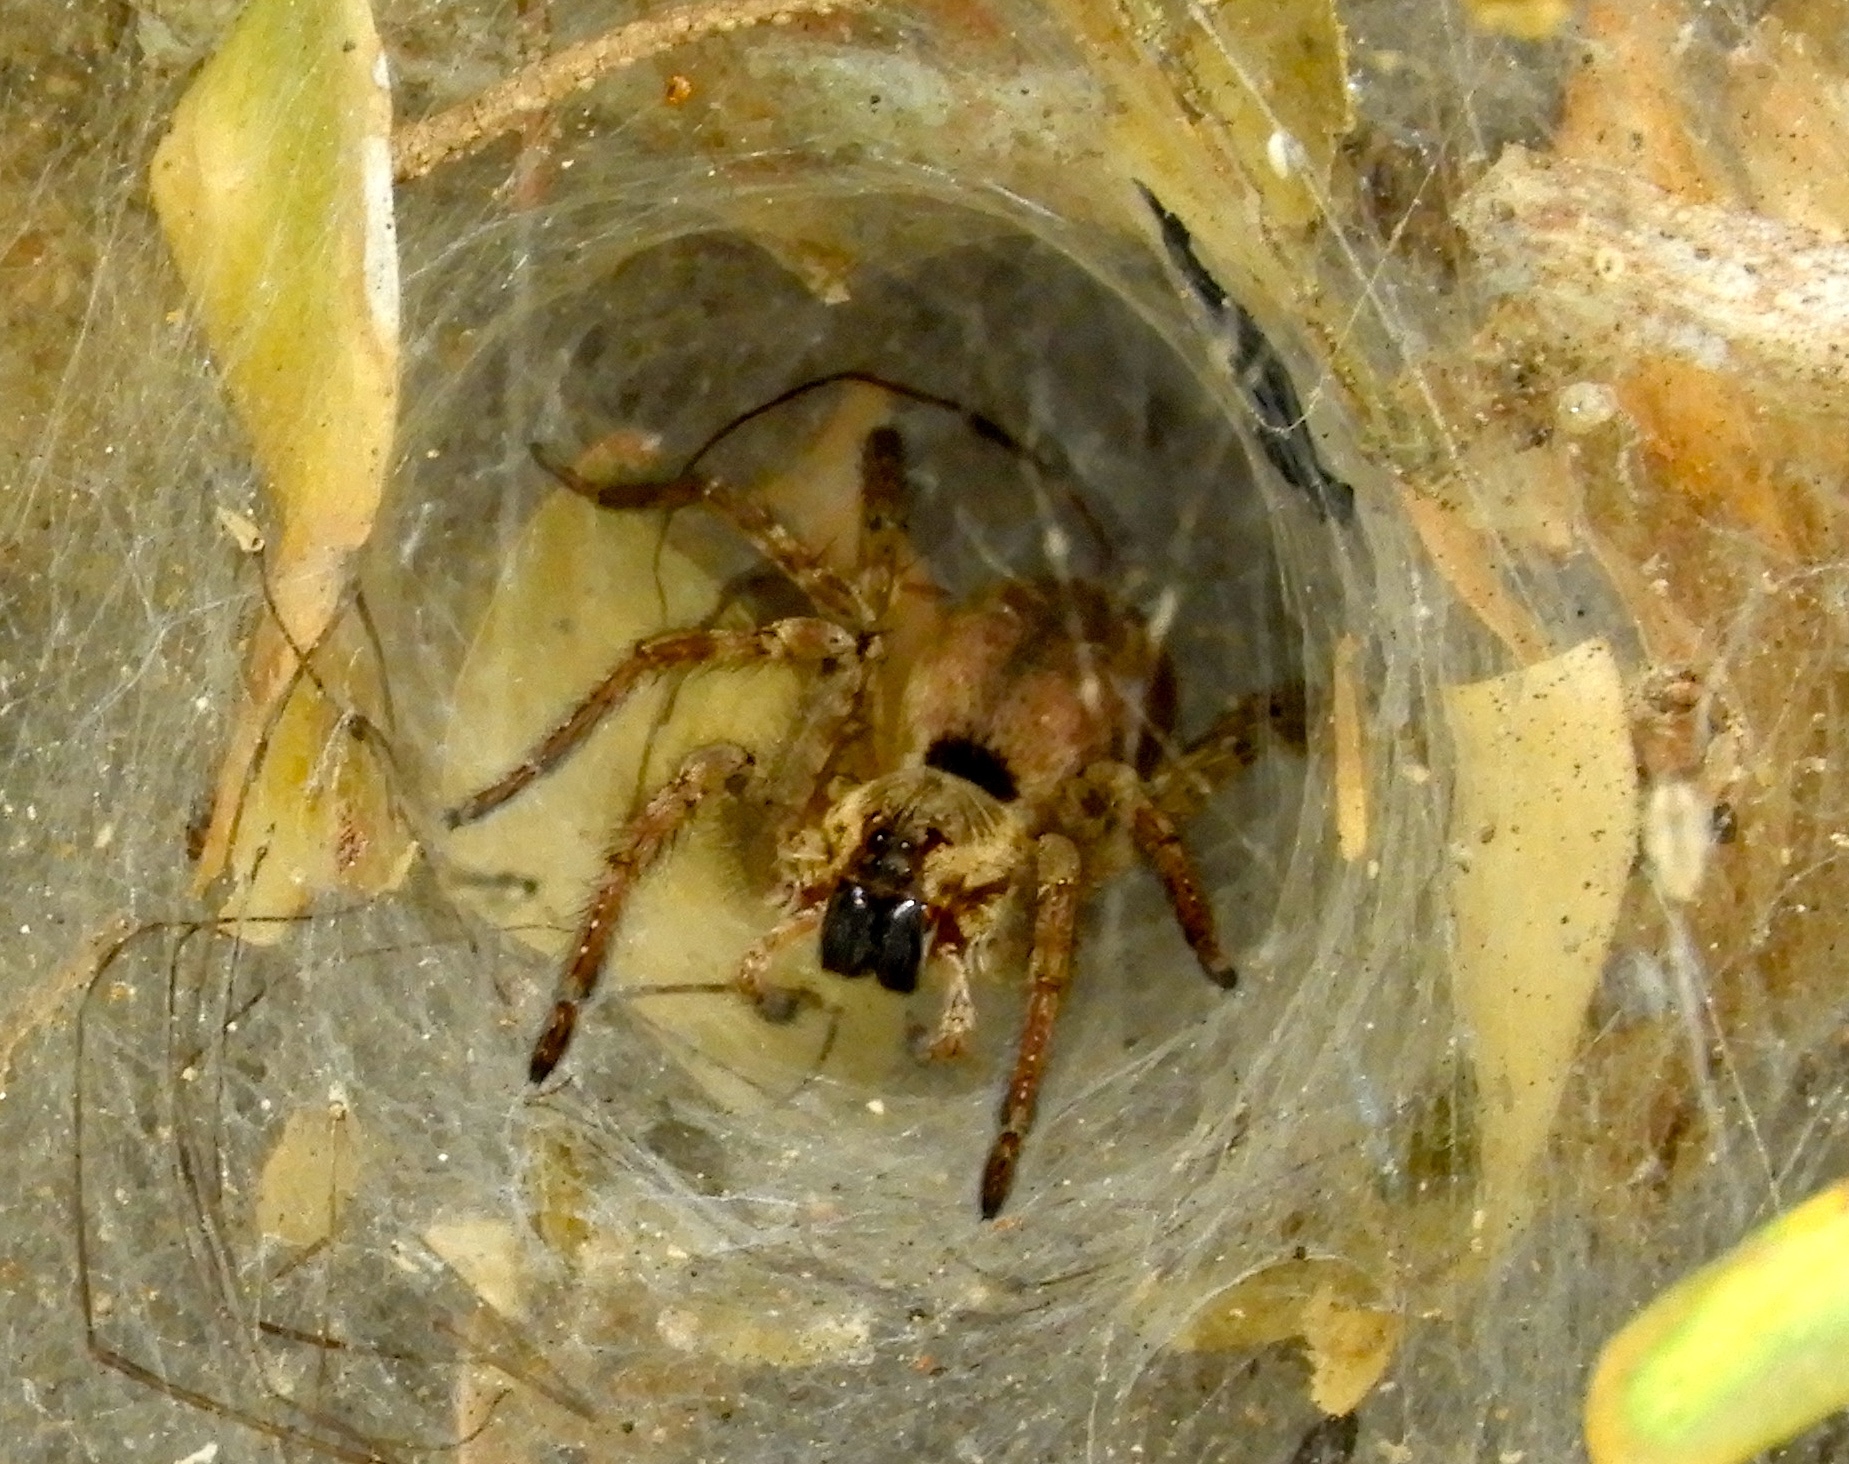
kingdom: Animalia
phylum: Arthropoda
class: Arachnida
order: Araneae
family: Lycosidae
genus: Sosippus
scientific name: Sosippus californicus
